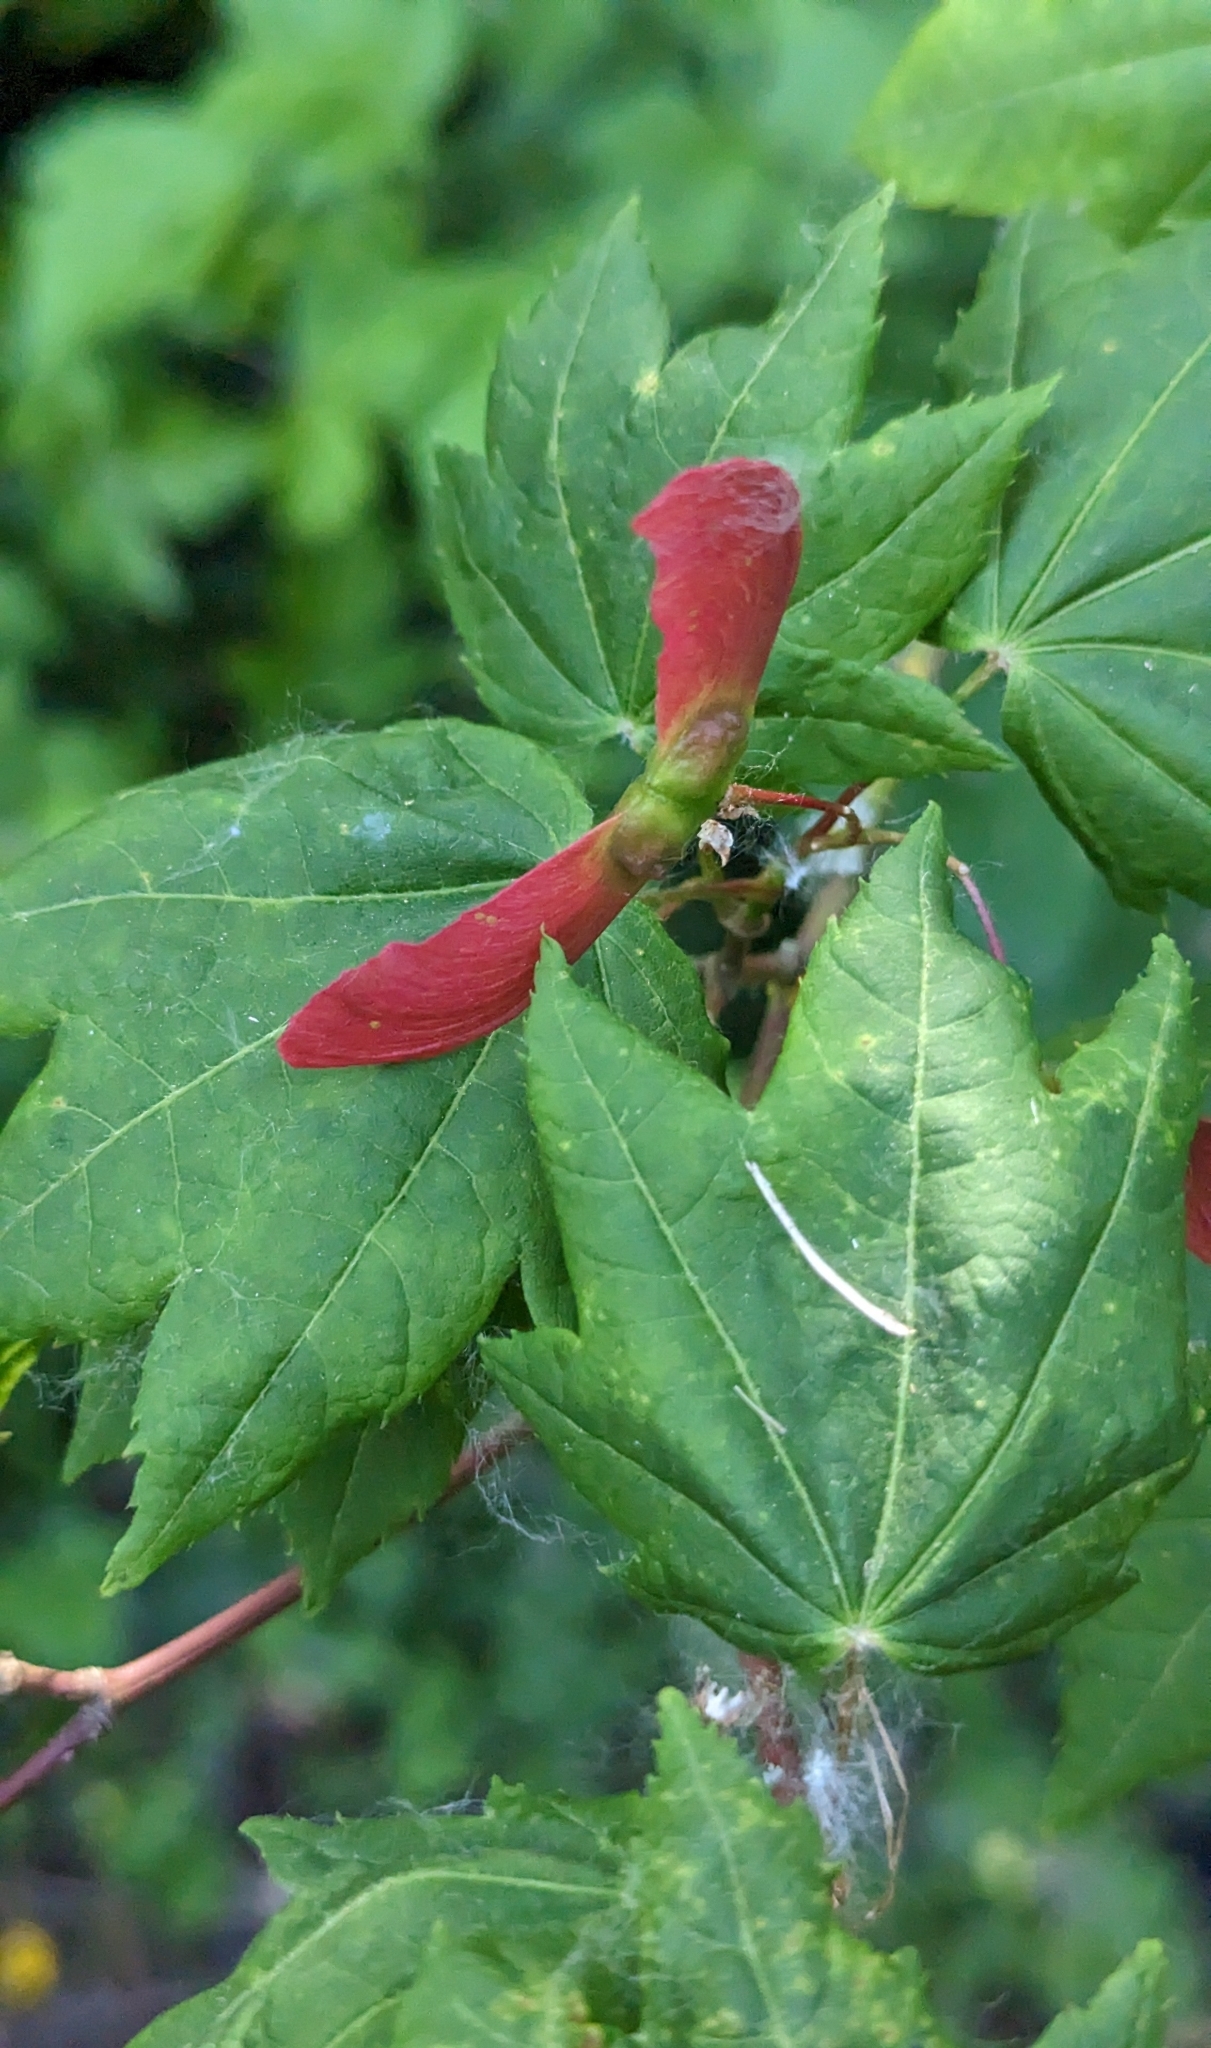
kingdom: Plantae
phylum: Tracheophyta
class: Magnoliopsida
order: Sapindales
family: Sapindaceae
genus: Acer
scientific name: Acer circinatum
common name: Vine maple
